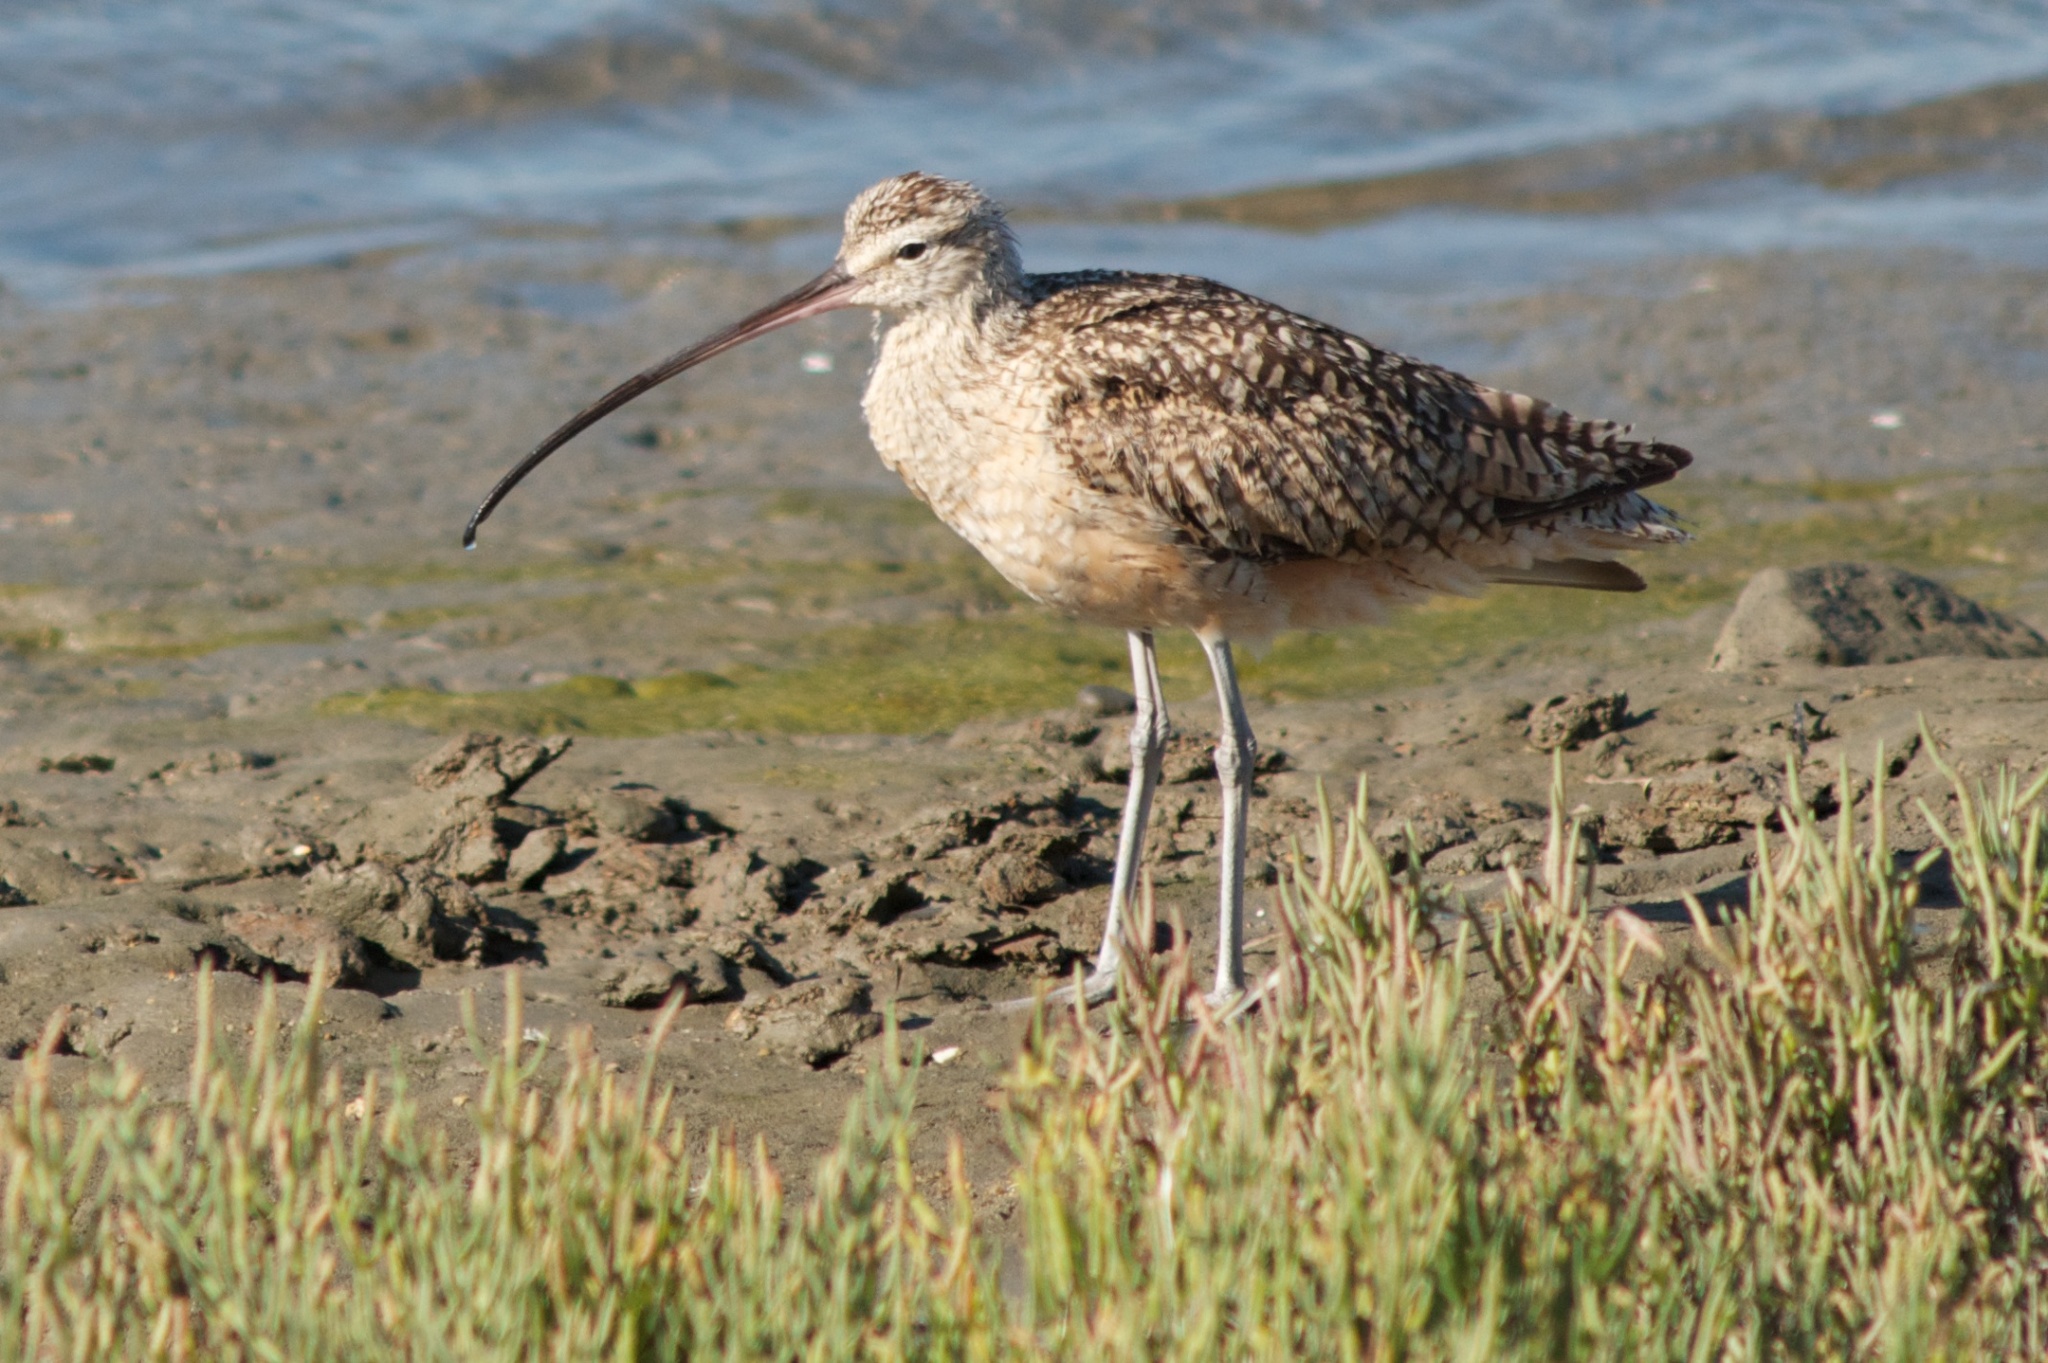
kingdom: Animalia
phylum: Chordata
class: Aves
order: Charadriiformes
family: Scolopacidae
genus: Numenius
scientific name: Numenius americanus
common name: Long-billed curlew
